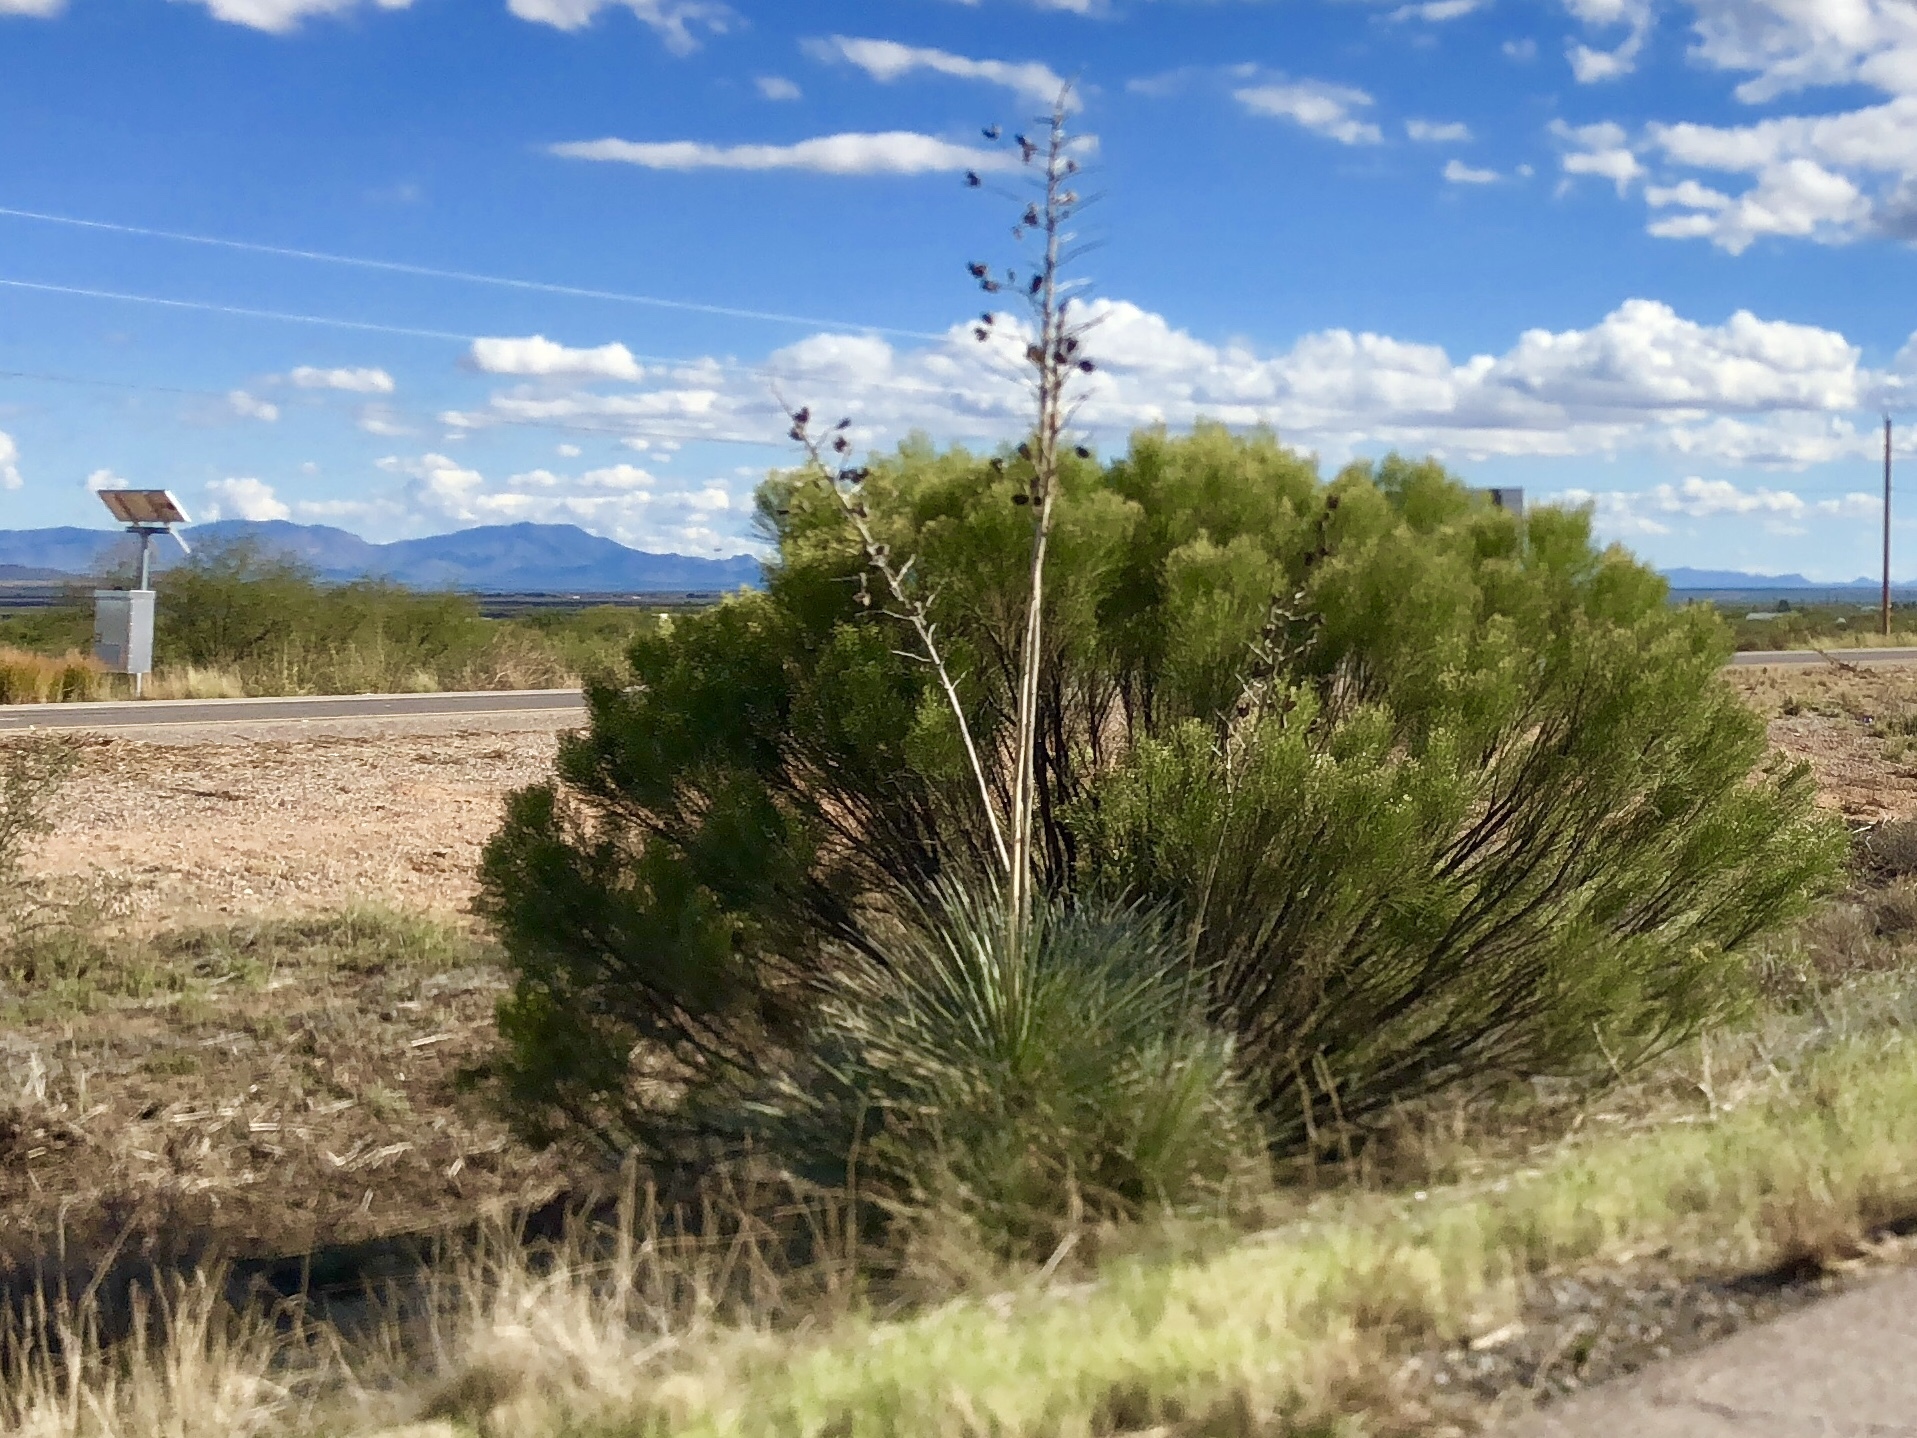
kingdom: Plantae
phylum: Tracheophyta
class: Liliopsida
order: Asparagales
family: Asparagaceae
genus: Yucca
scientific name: Yucca elata
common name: Palmella
